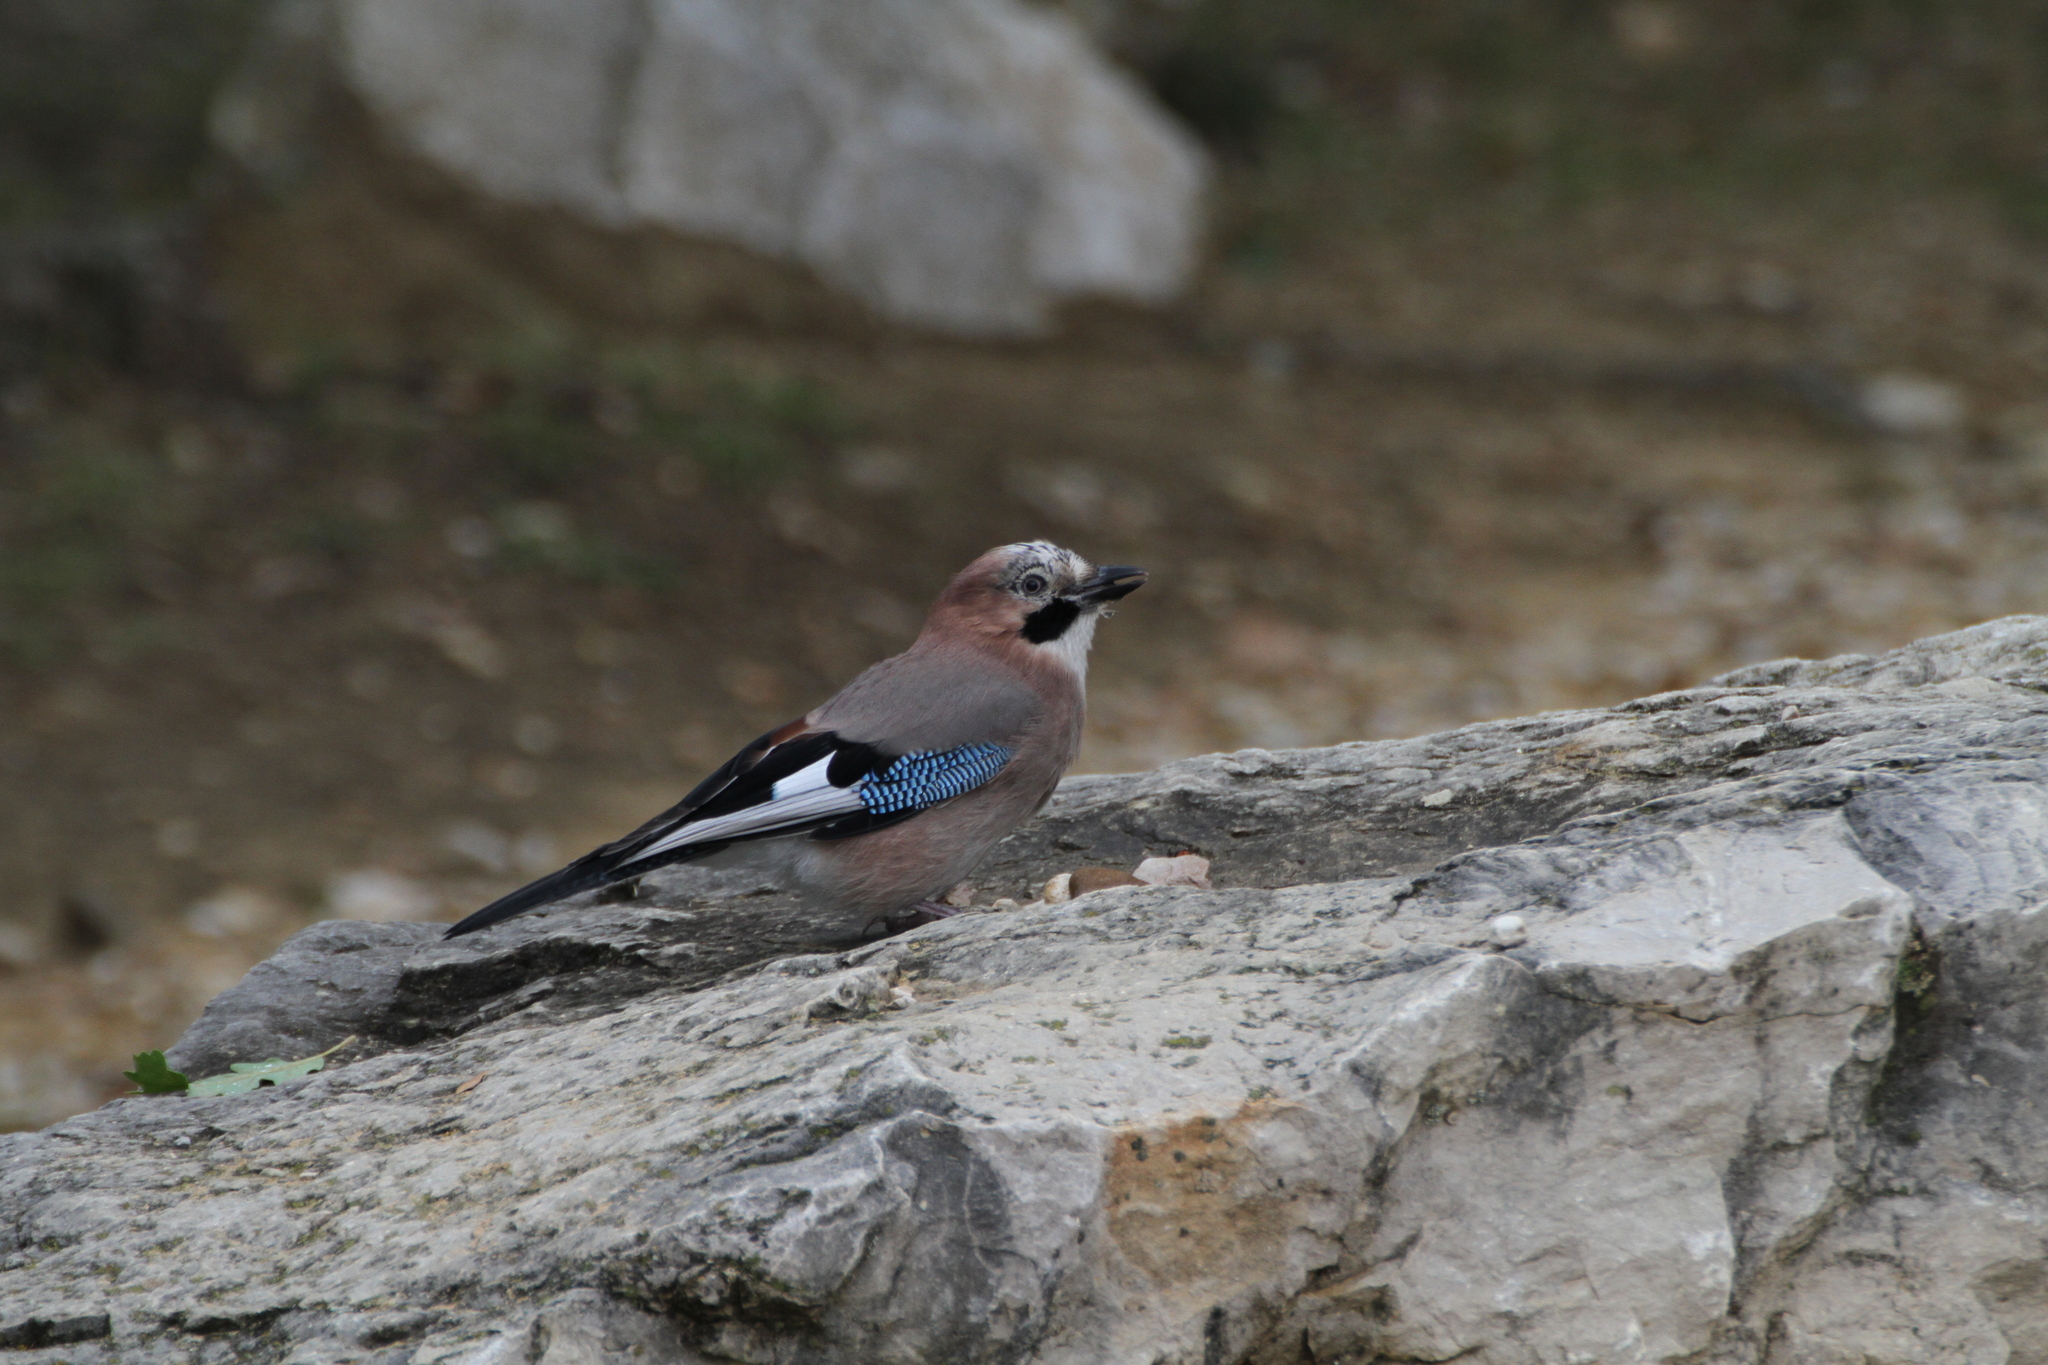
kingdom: Animalia
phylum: Chordata
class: Aves
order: Passeriformes
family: Corvidae
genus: Garrulus
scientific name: Garrulus glandarius
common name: Eurasian jay
